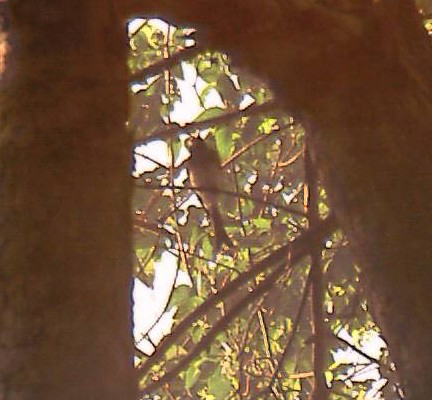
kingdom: Animalia
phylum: Chordata
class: Aves
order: Passeriformes
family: Dicruridae
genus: Dicrurus
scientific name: Dicrurus caerulescens
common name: White-bellied drongo
